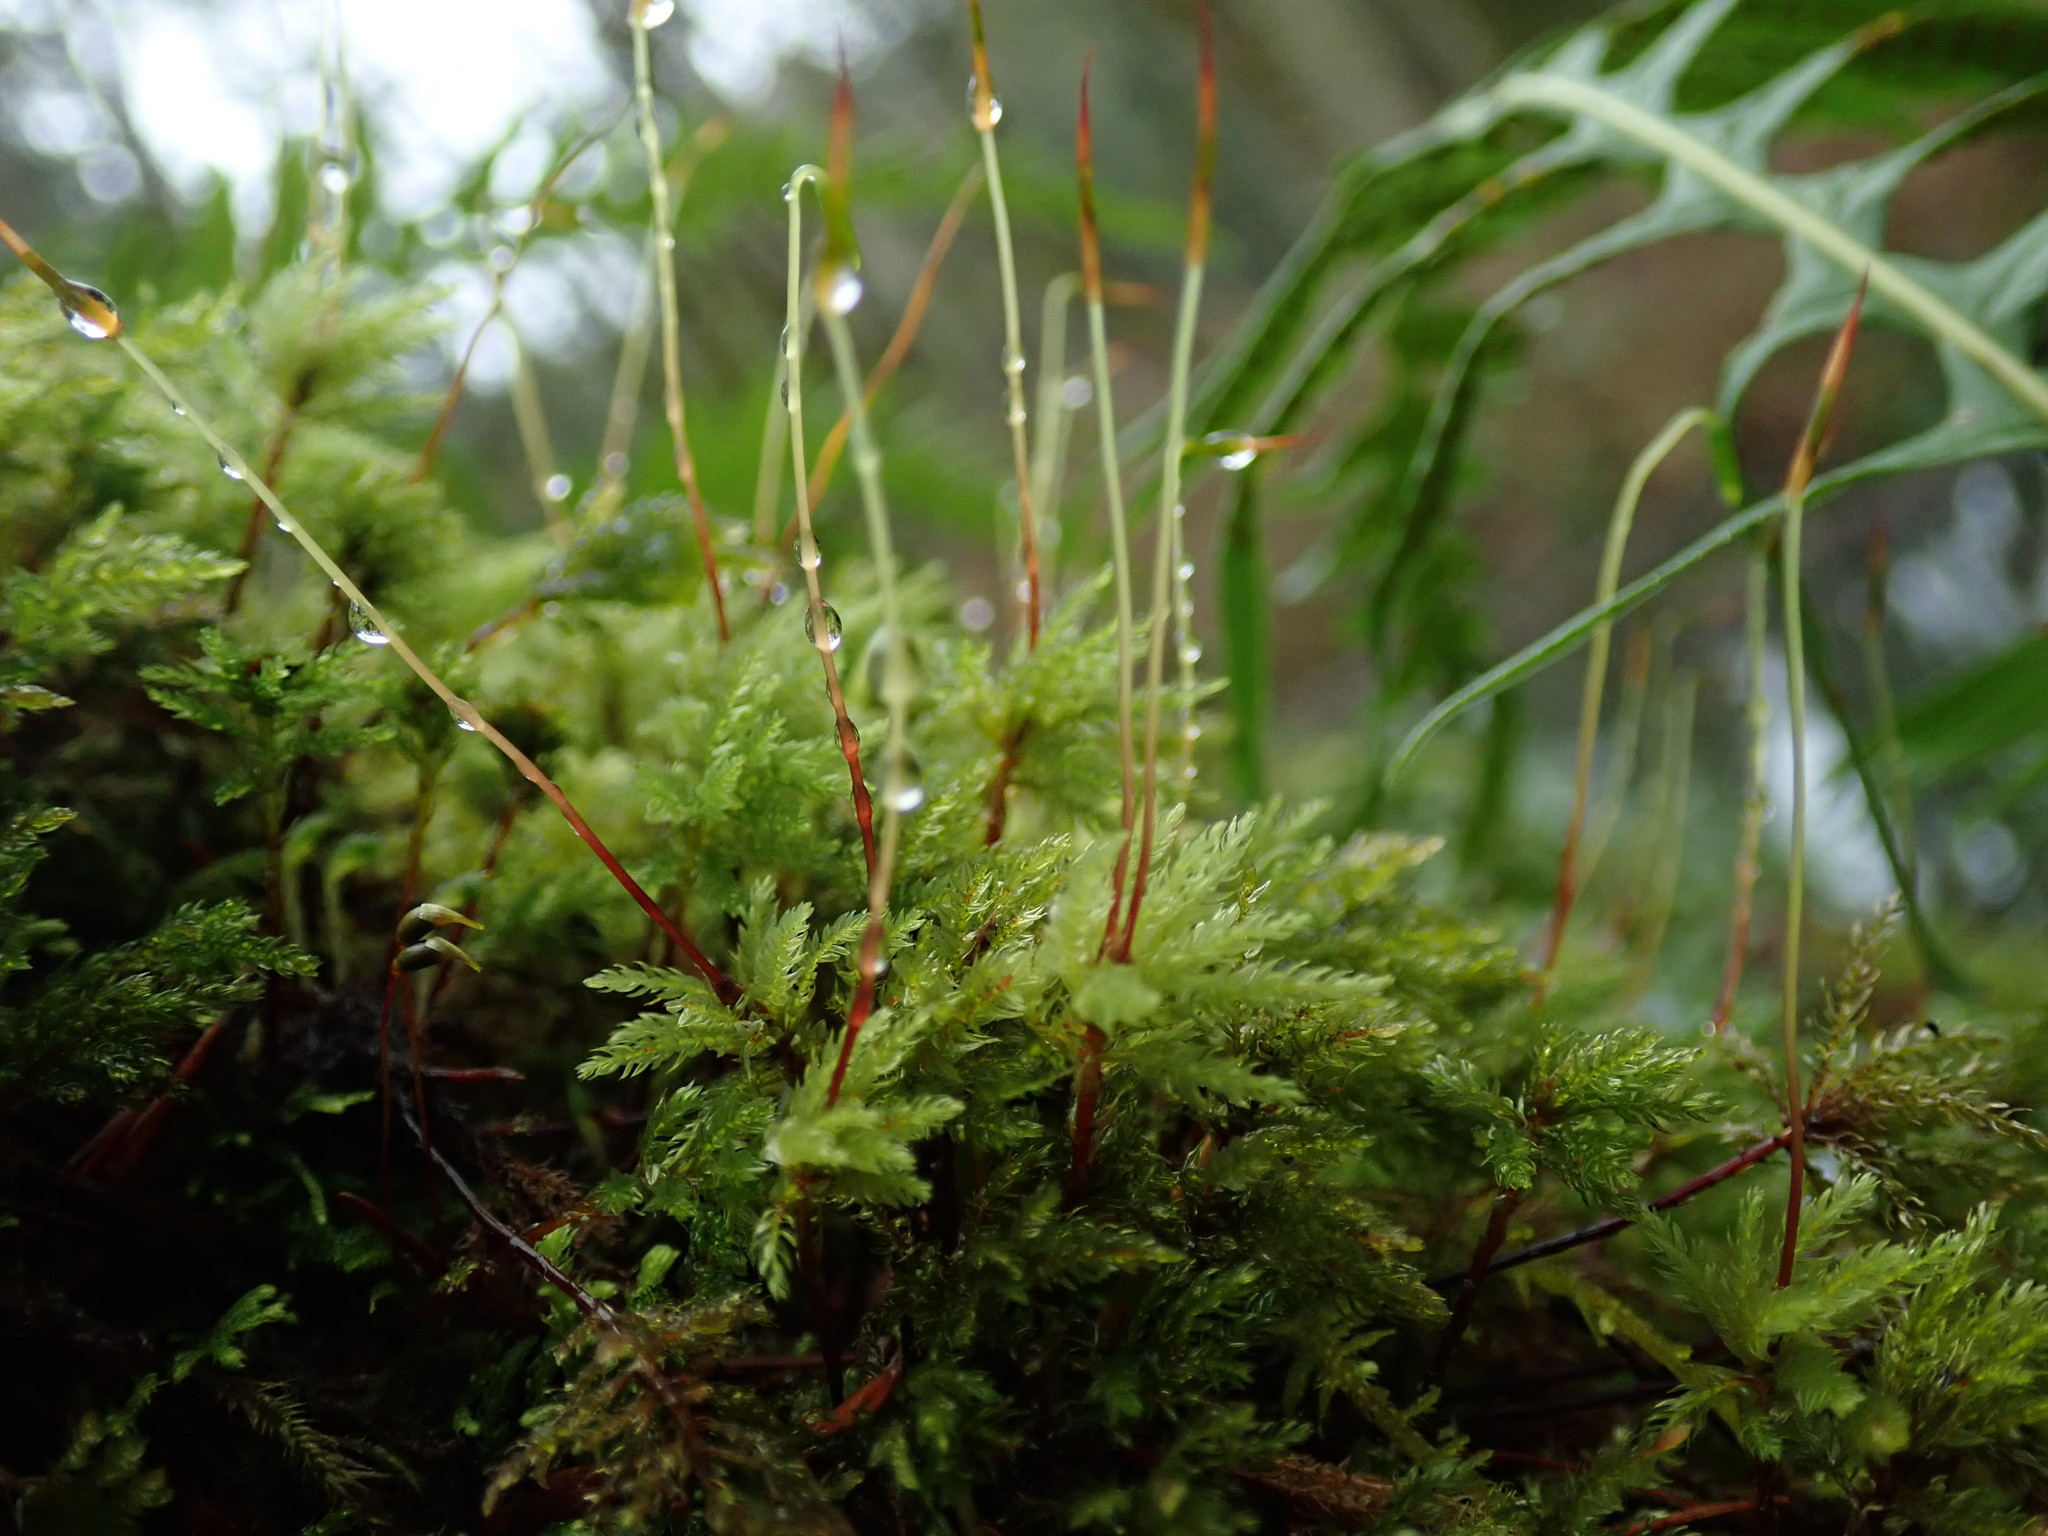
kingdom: Plantae
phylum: Bryophyta
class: Bryopsida
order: Bryales
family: Mniaceae
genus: Leucolepis
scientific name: Leucolepis acanthoneura
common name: Leucolepis umbrella moss
